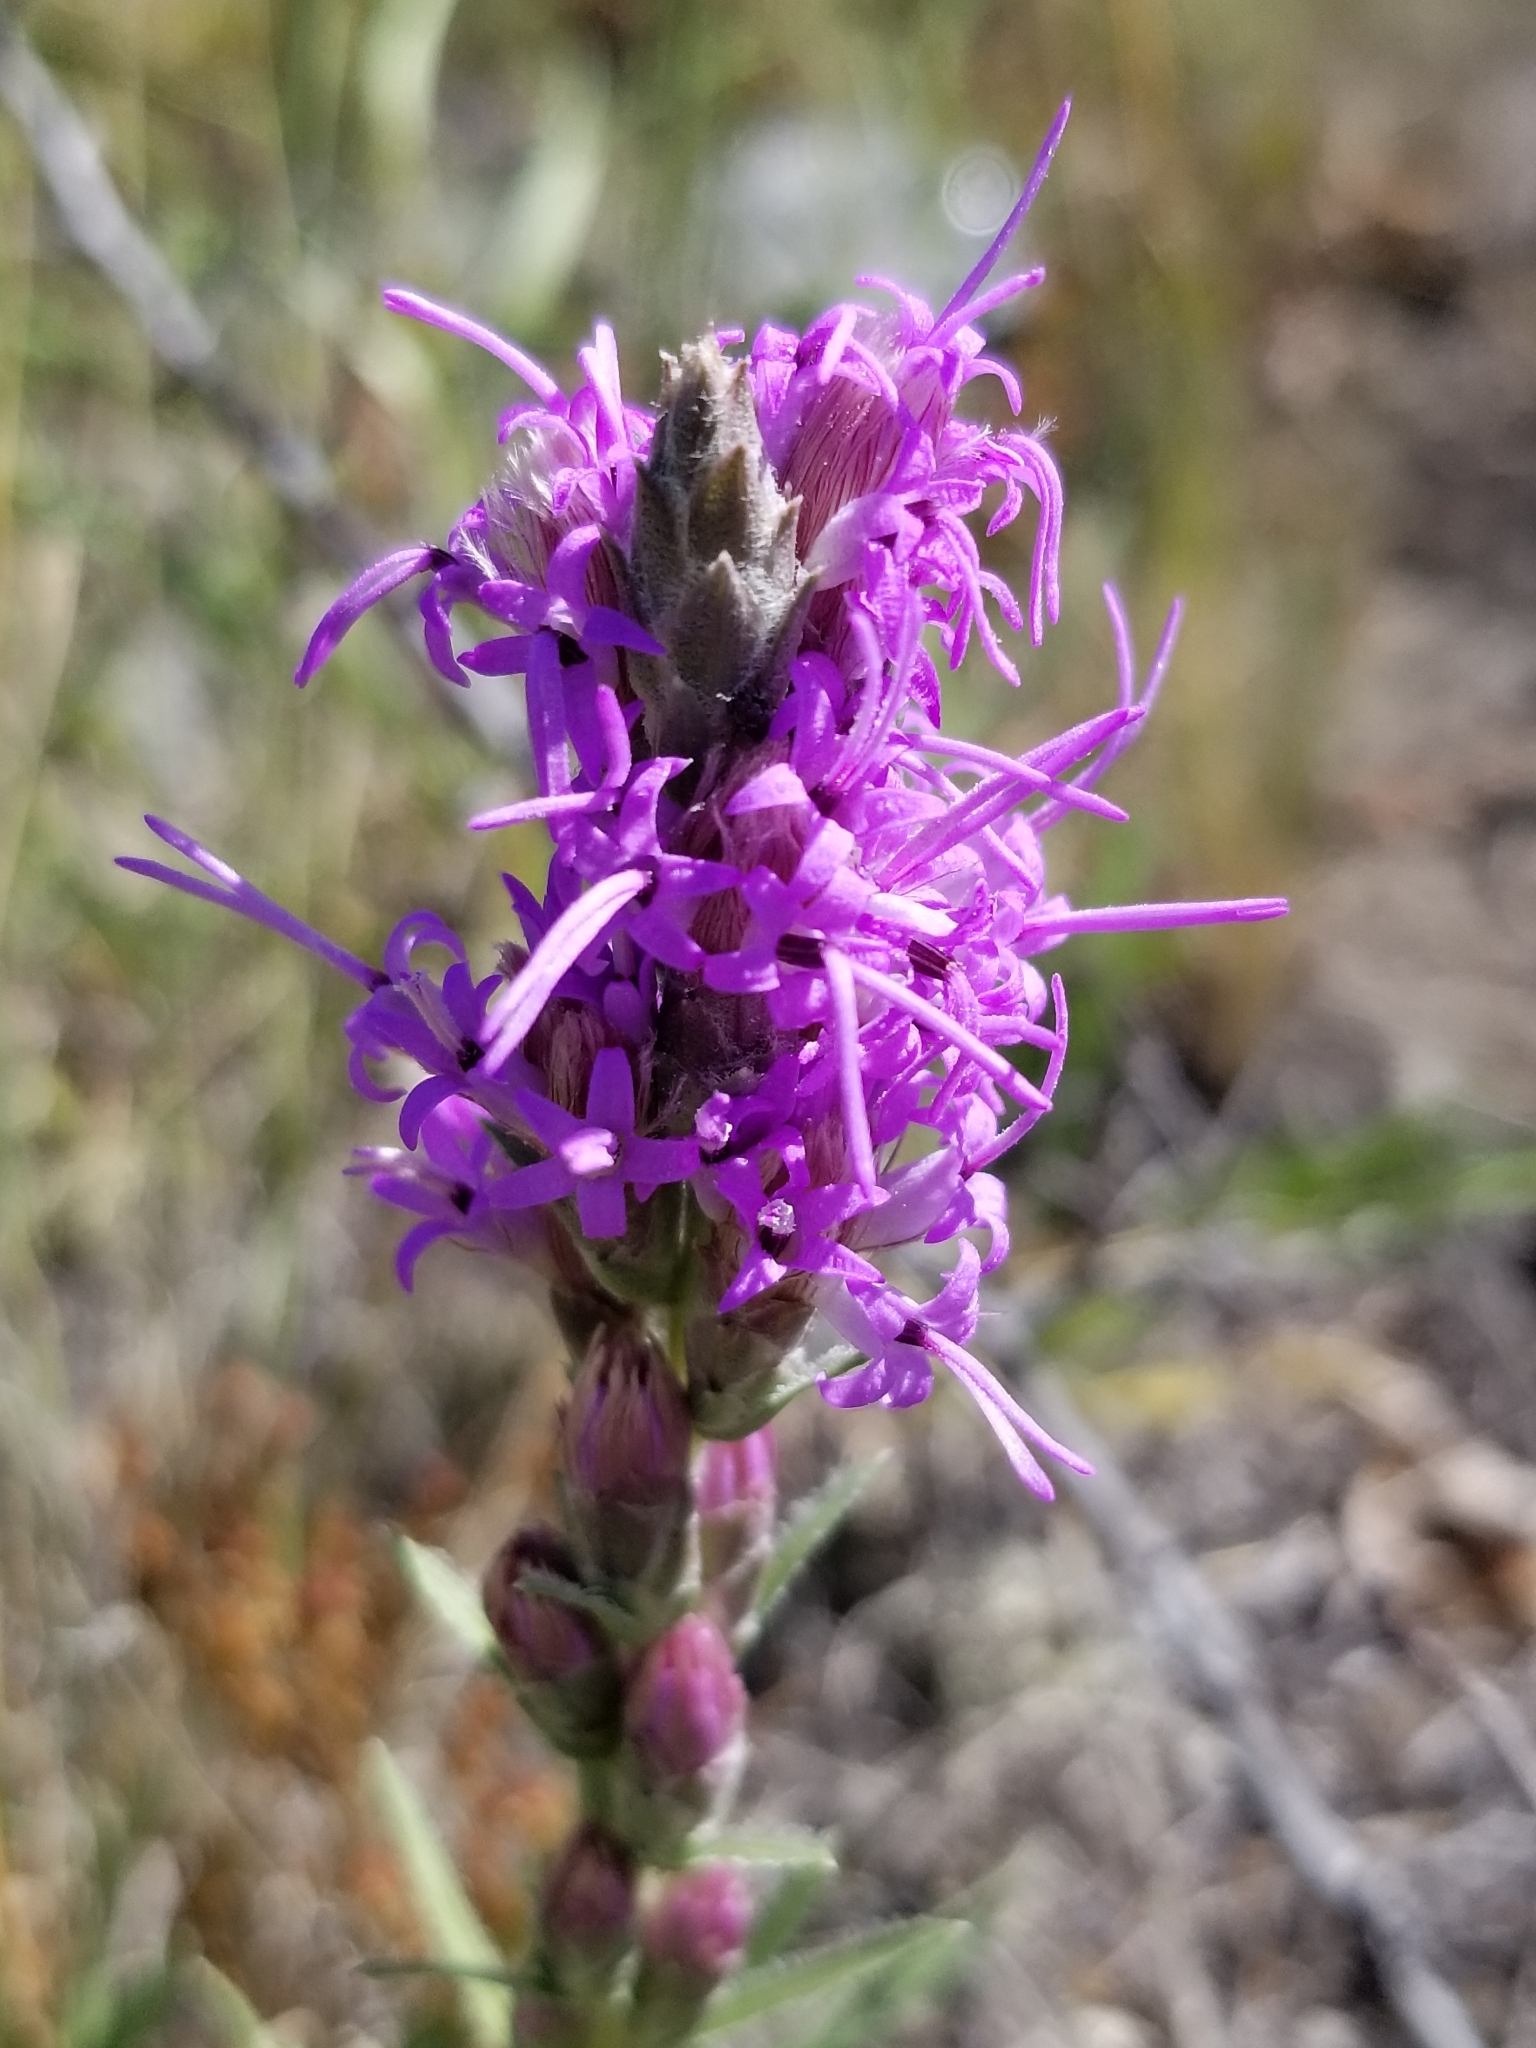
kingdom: Plantae
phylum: Tracheophyta
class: Magnoliopsida
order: Asterales
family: Asteraceae
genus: Liatris
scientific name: Liatris punctata
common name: Dotted gayfeather
